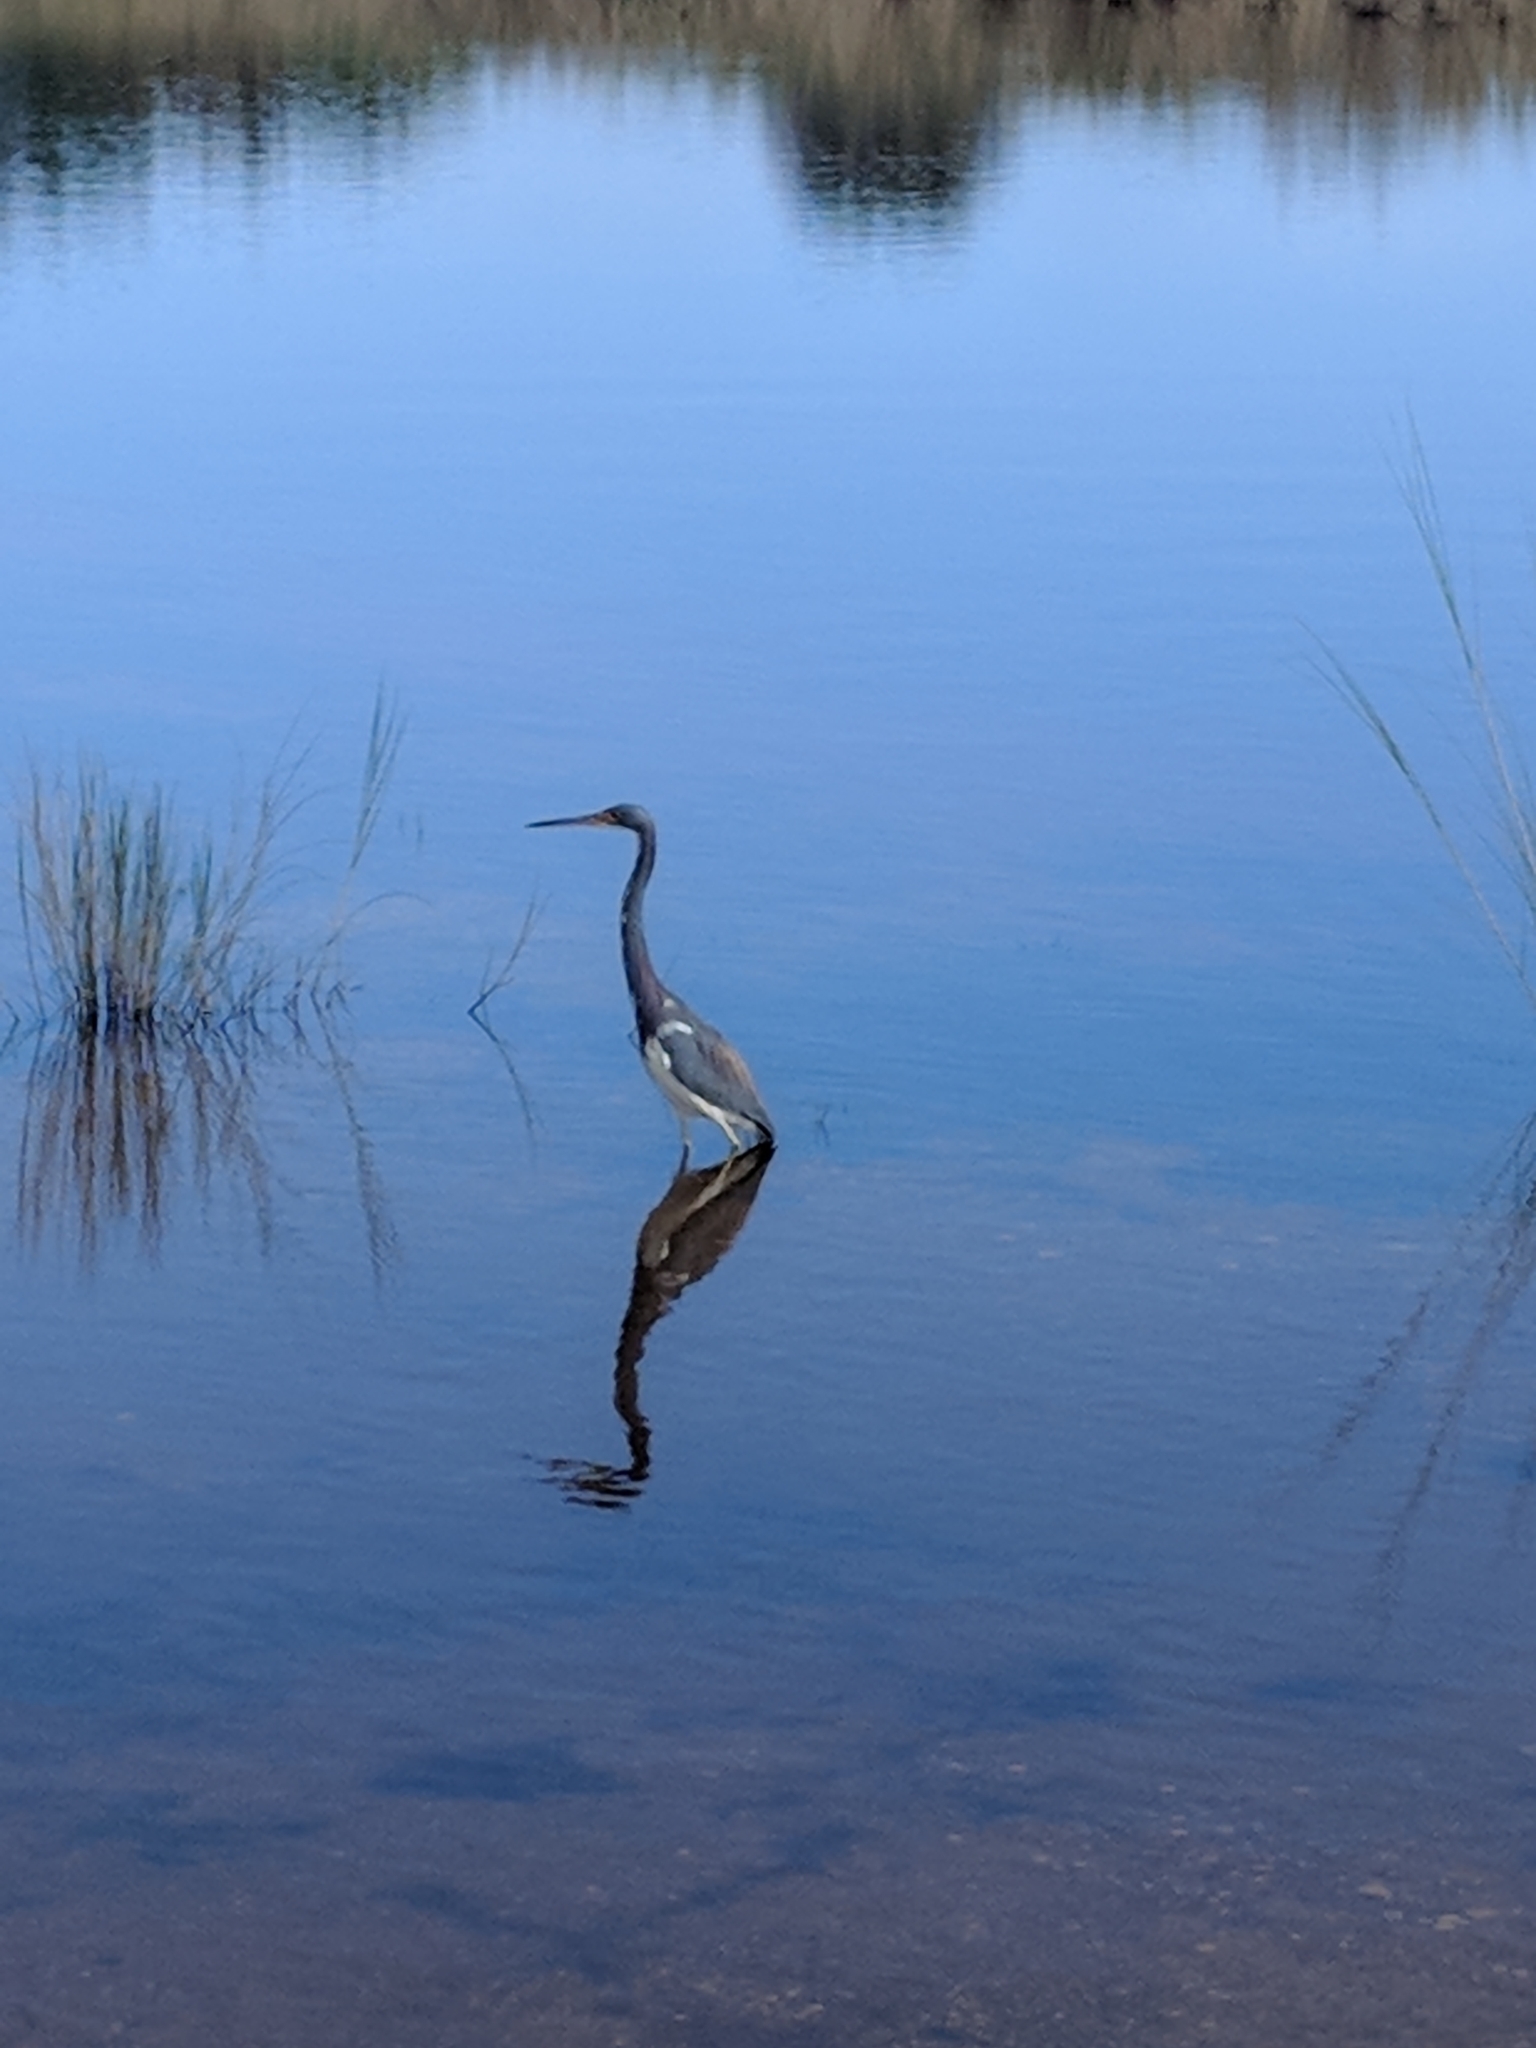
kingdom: Animalia
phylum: Chordata
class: Aves
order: Pelecaniformes
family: Ardeidae
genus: Egretta
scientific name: Egretta tricolor
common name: Tricolored heron
